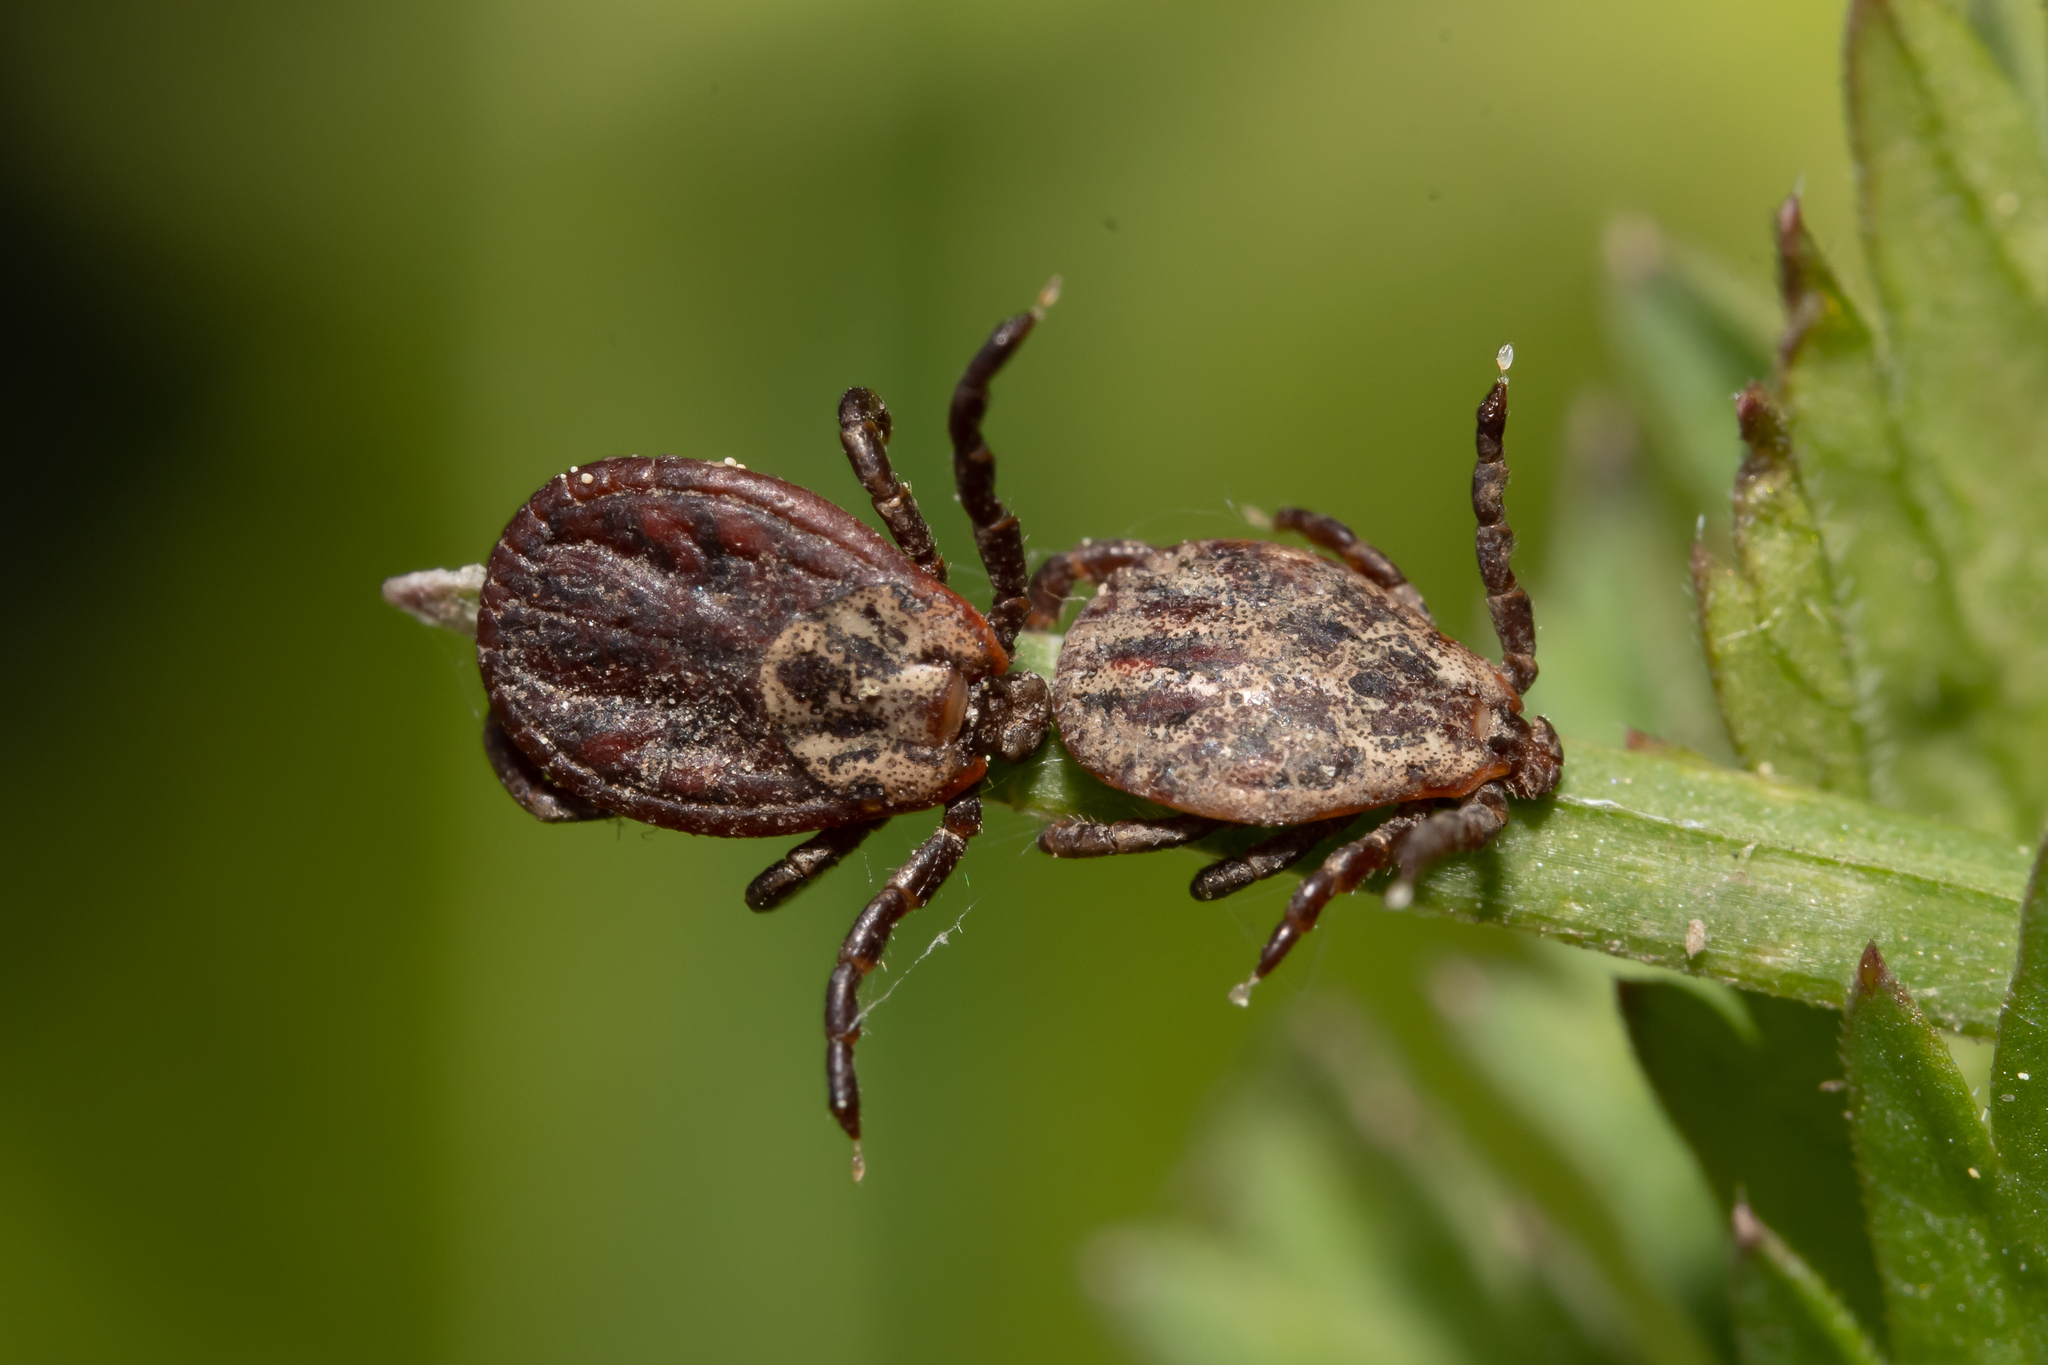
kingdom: Animalia
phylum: Arthropoda
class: Arachnida
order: Ixodida
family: Ixodidae
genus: Dermacentor
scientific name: Dermacentor reticulatus
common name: Ornate cow tick
